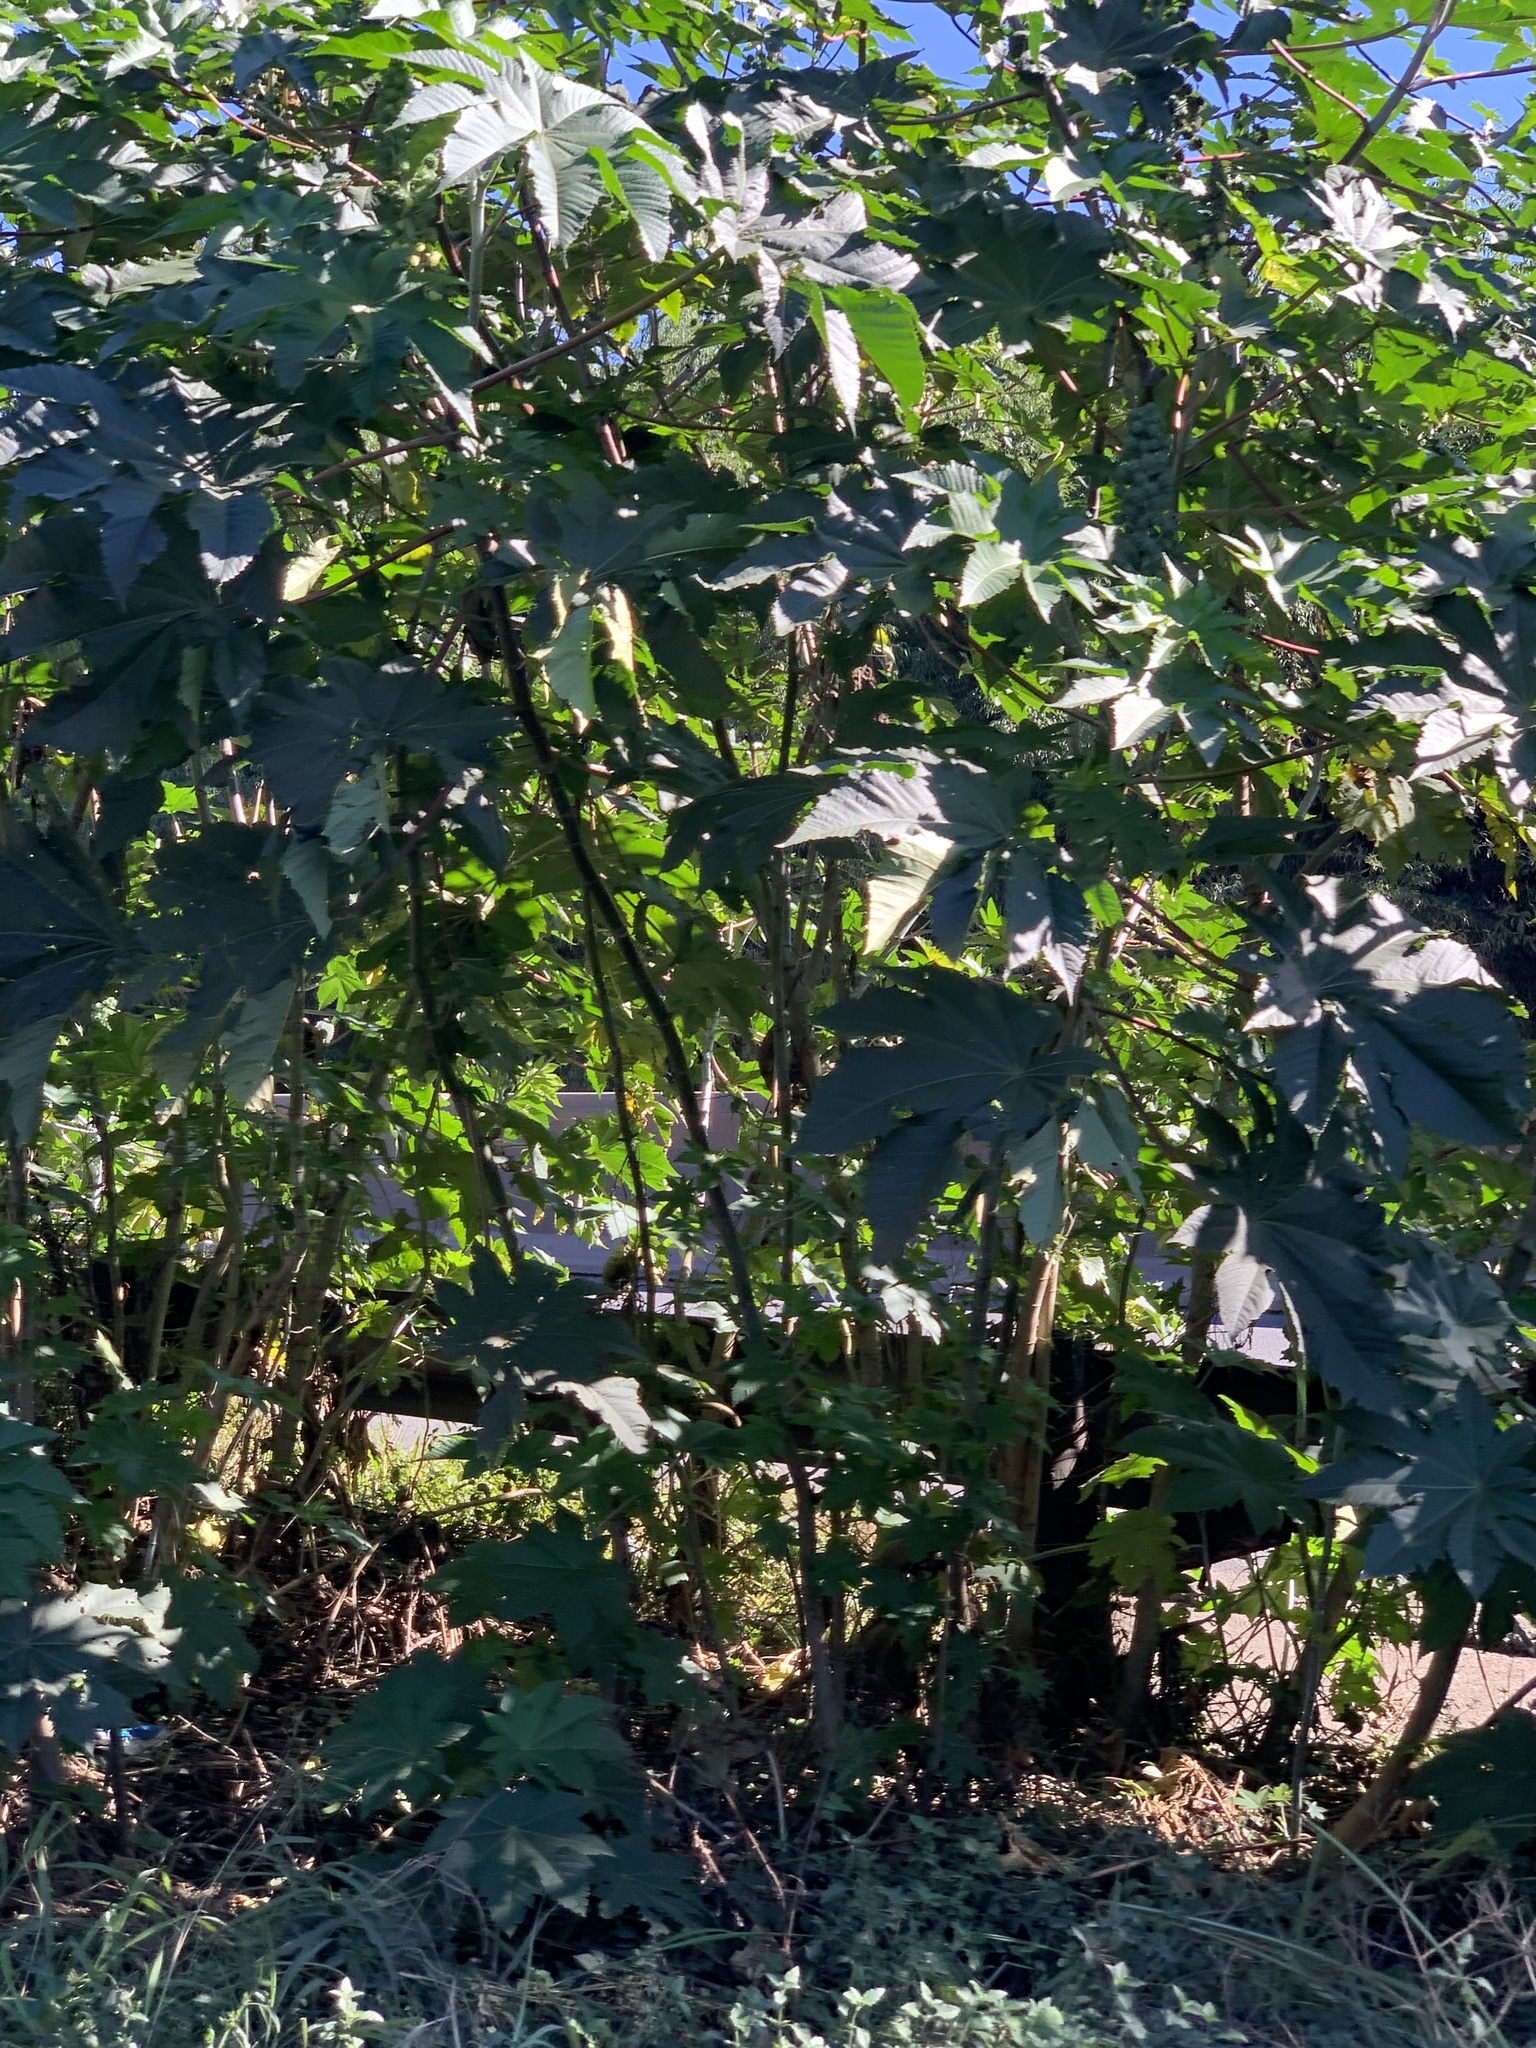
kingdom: Plantae
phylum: Tracheophyta
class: Magnoliopsida
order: Malpighiales
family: Euphorbiaceae
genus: Ricinus
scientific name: Ricinus communis
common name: Castor-oil-plant
